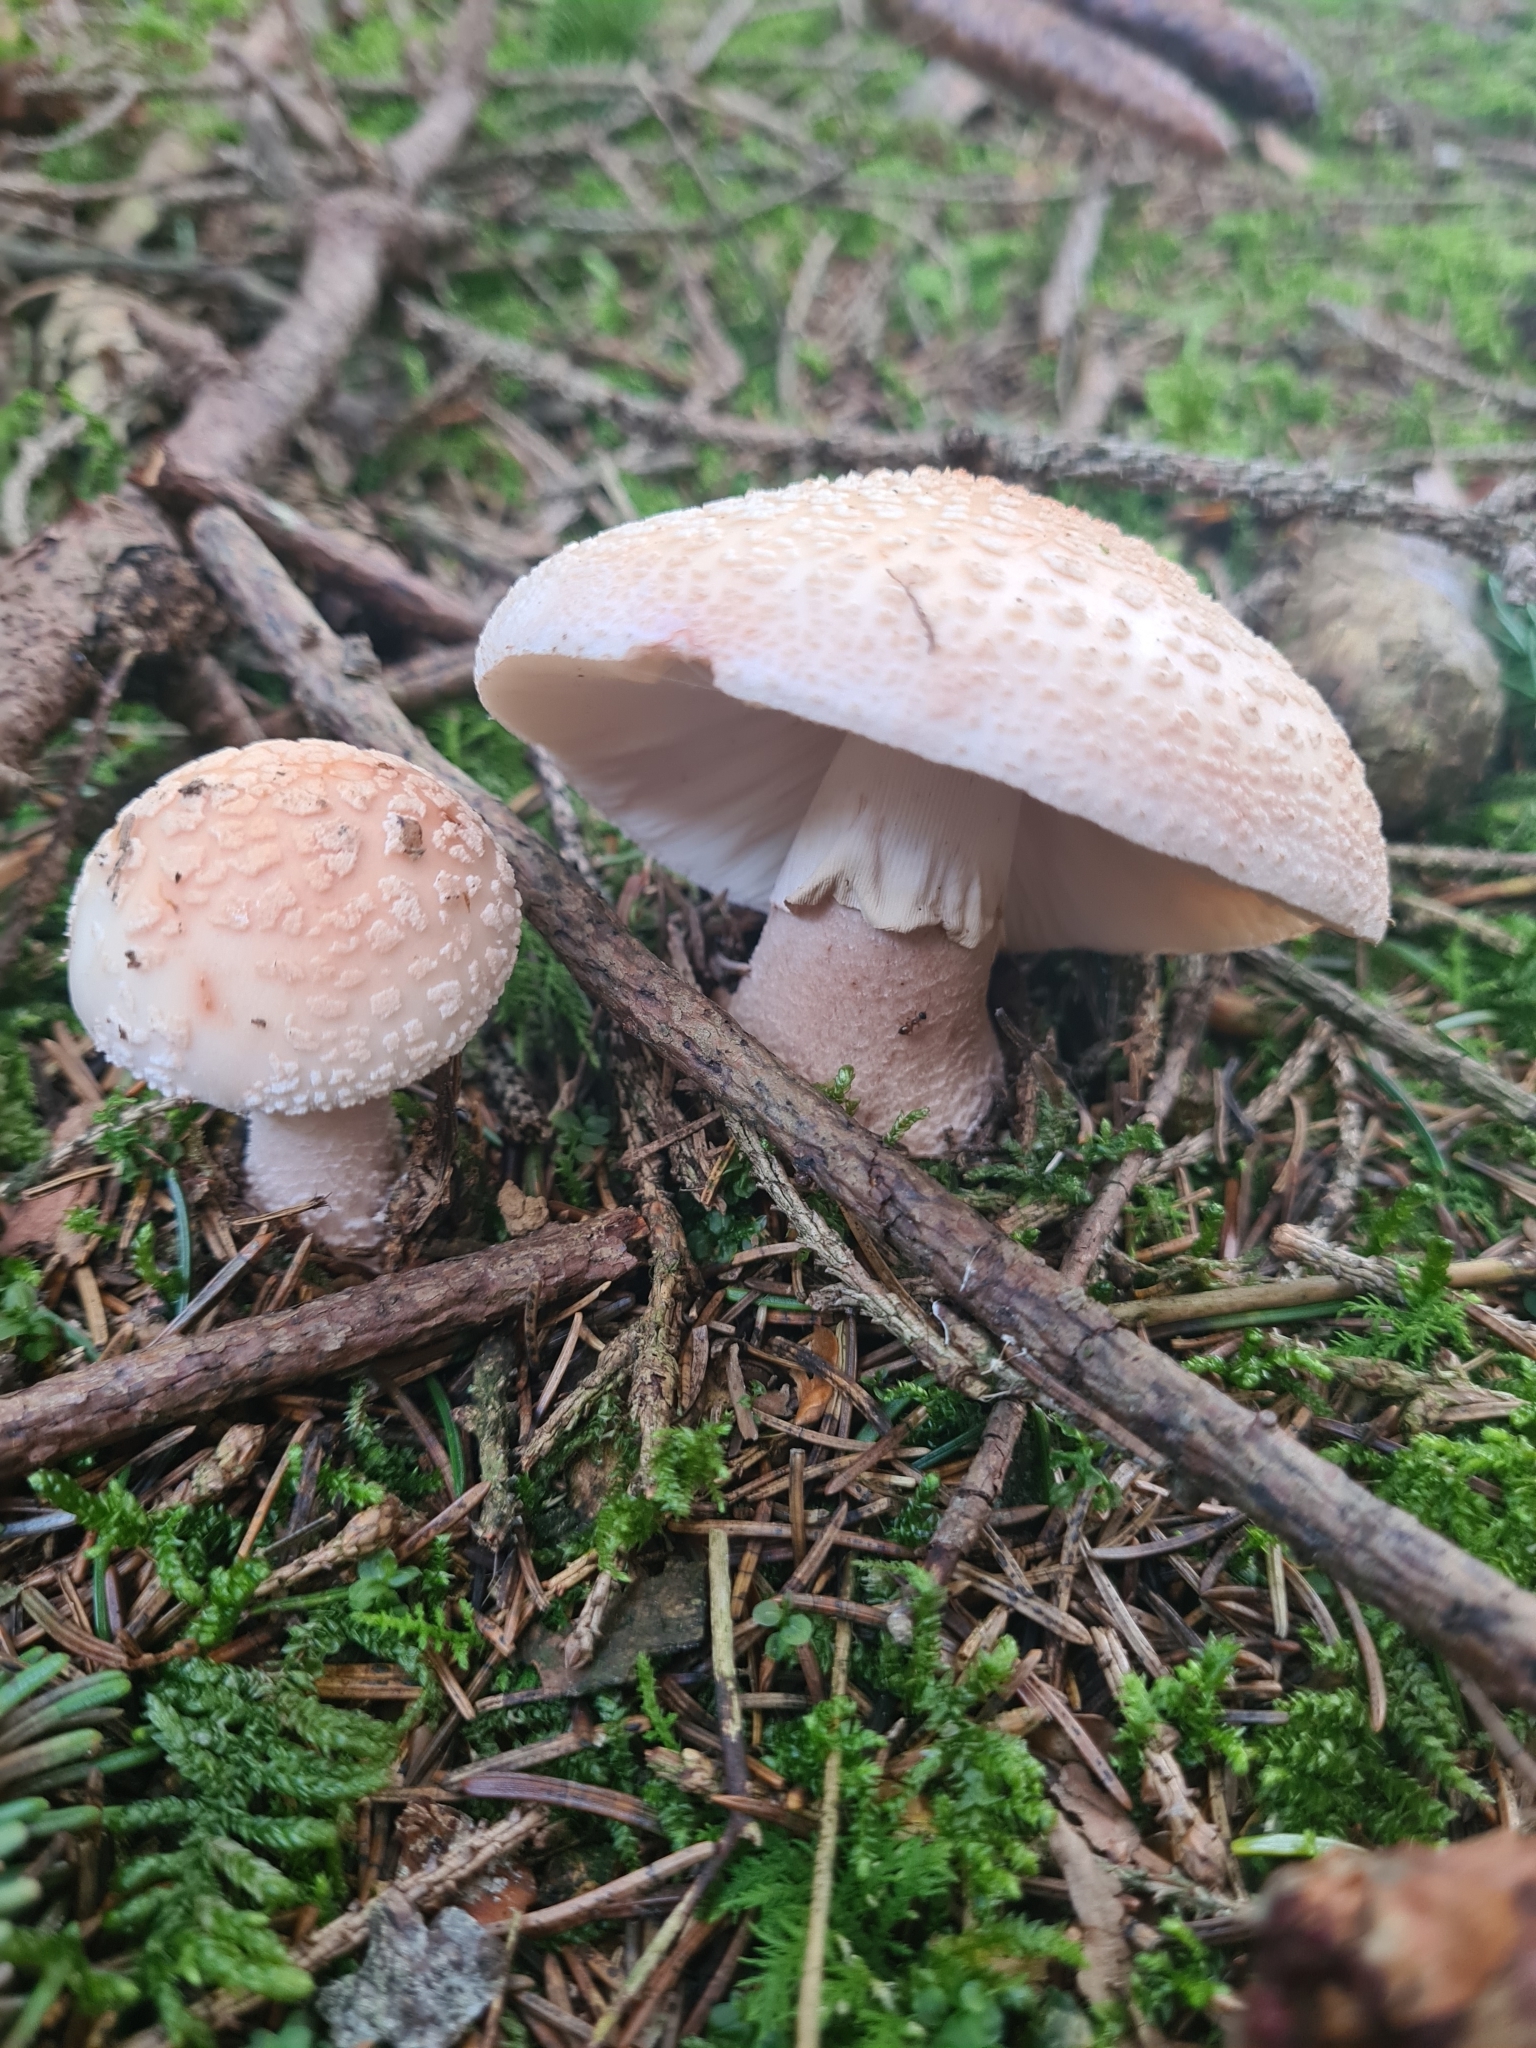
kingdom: Fungi
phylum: Basidiomycota
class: Agaricomycetes
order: Agaricales
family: Amanitaceae
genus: Amanita
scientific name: Amanita rubescens
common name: Blusher
